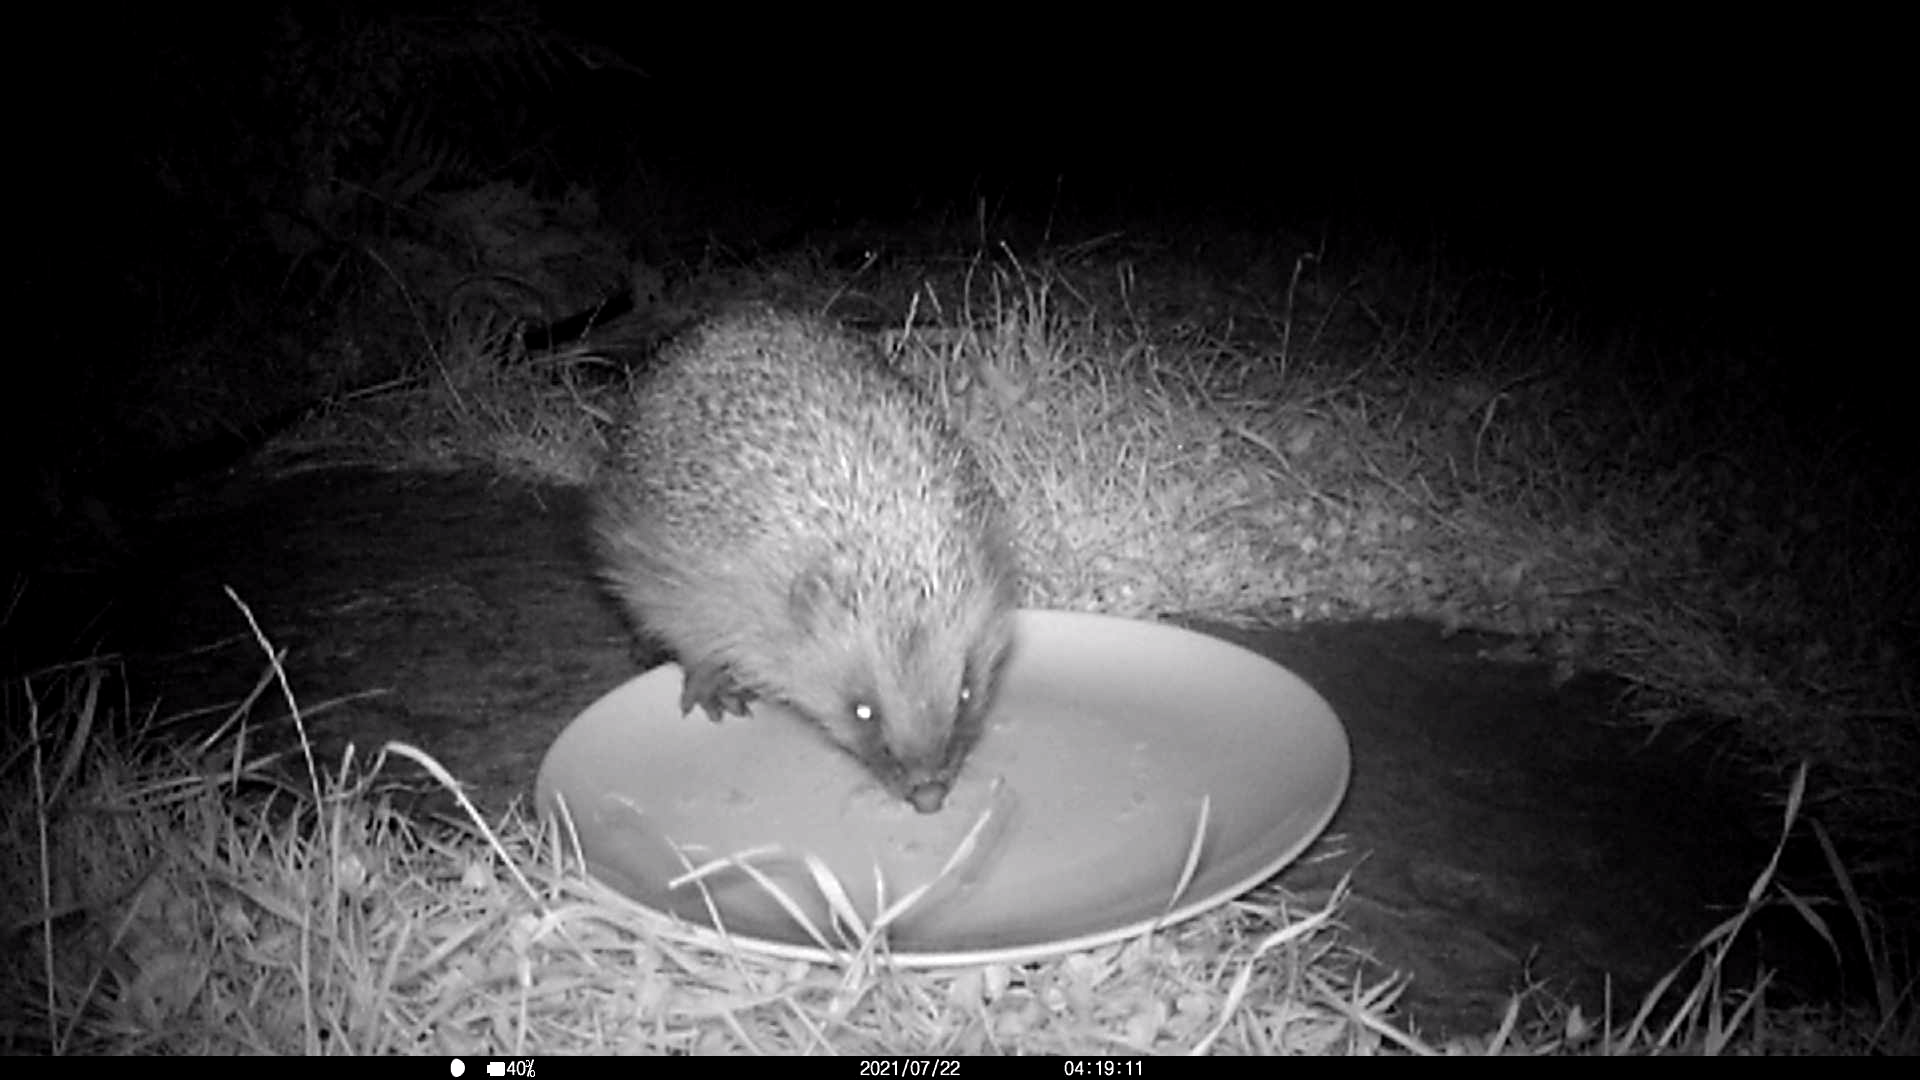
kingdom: Animalia
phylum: Chordata
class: Mammalia
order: Erinaceomorpha
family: Erinaceidae
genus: Erinaceus
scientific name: Erinaceus europaeus
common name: West european hedgehog
